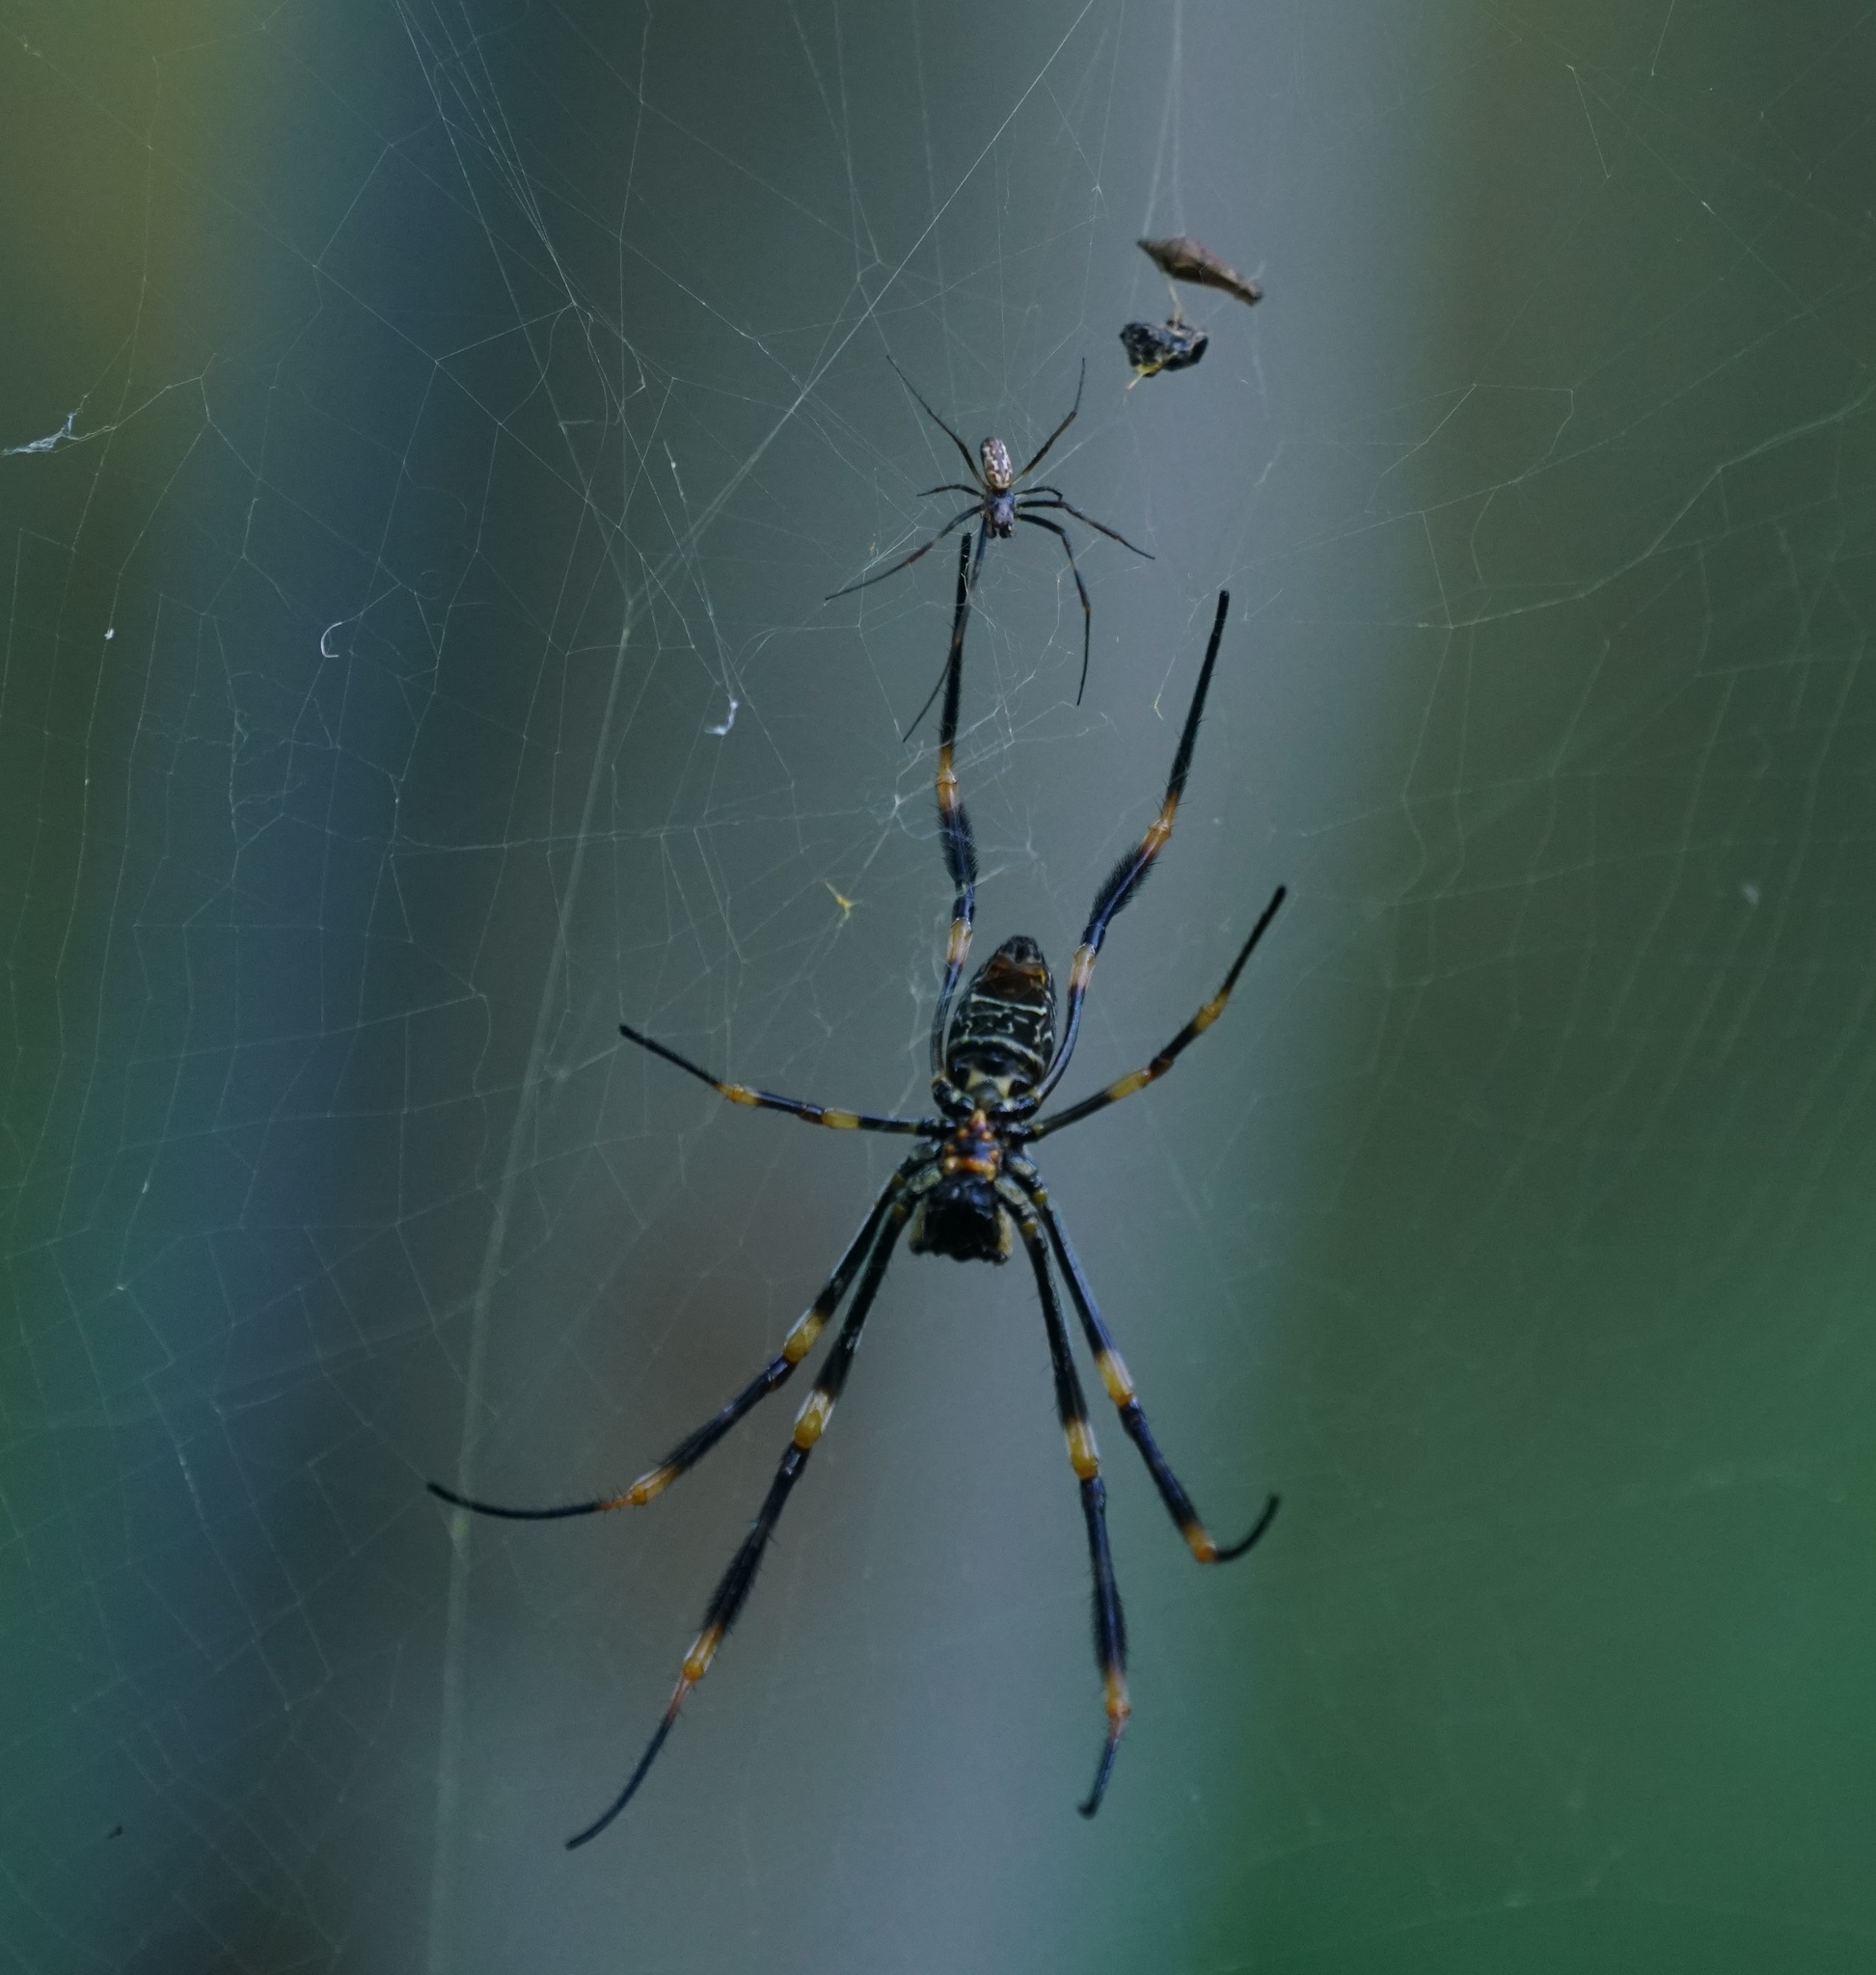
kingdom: Animalia
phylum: Arthropoda
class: Arachnida
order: Araneae
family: Araneidae
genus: Trichonephila
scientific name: Trichonephila plumipes
